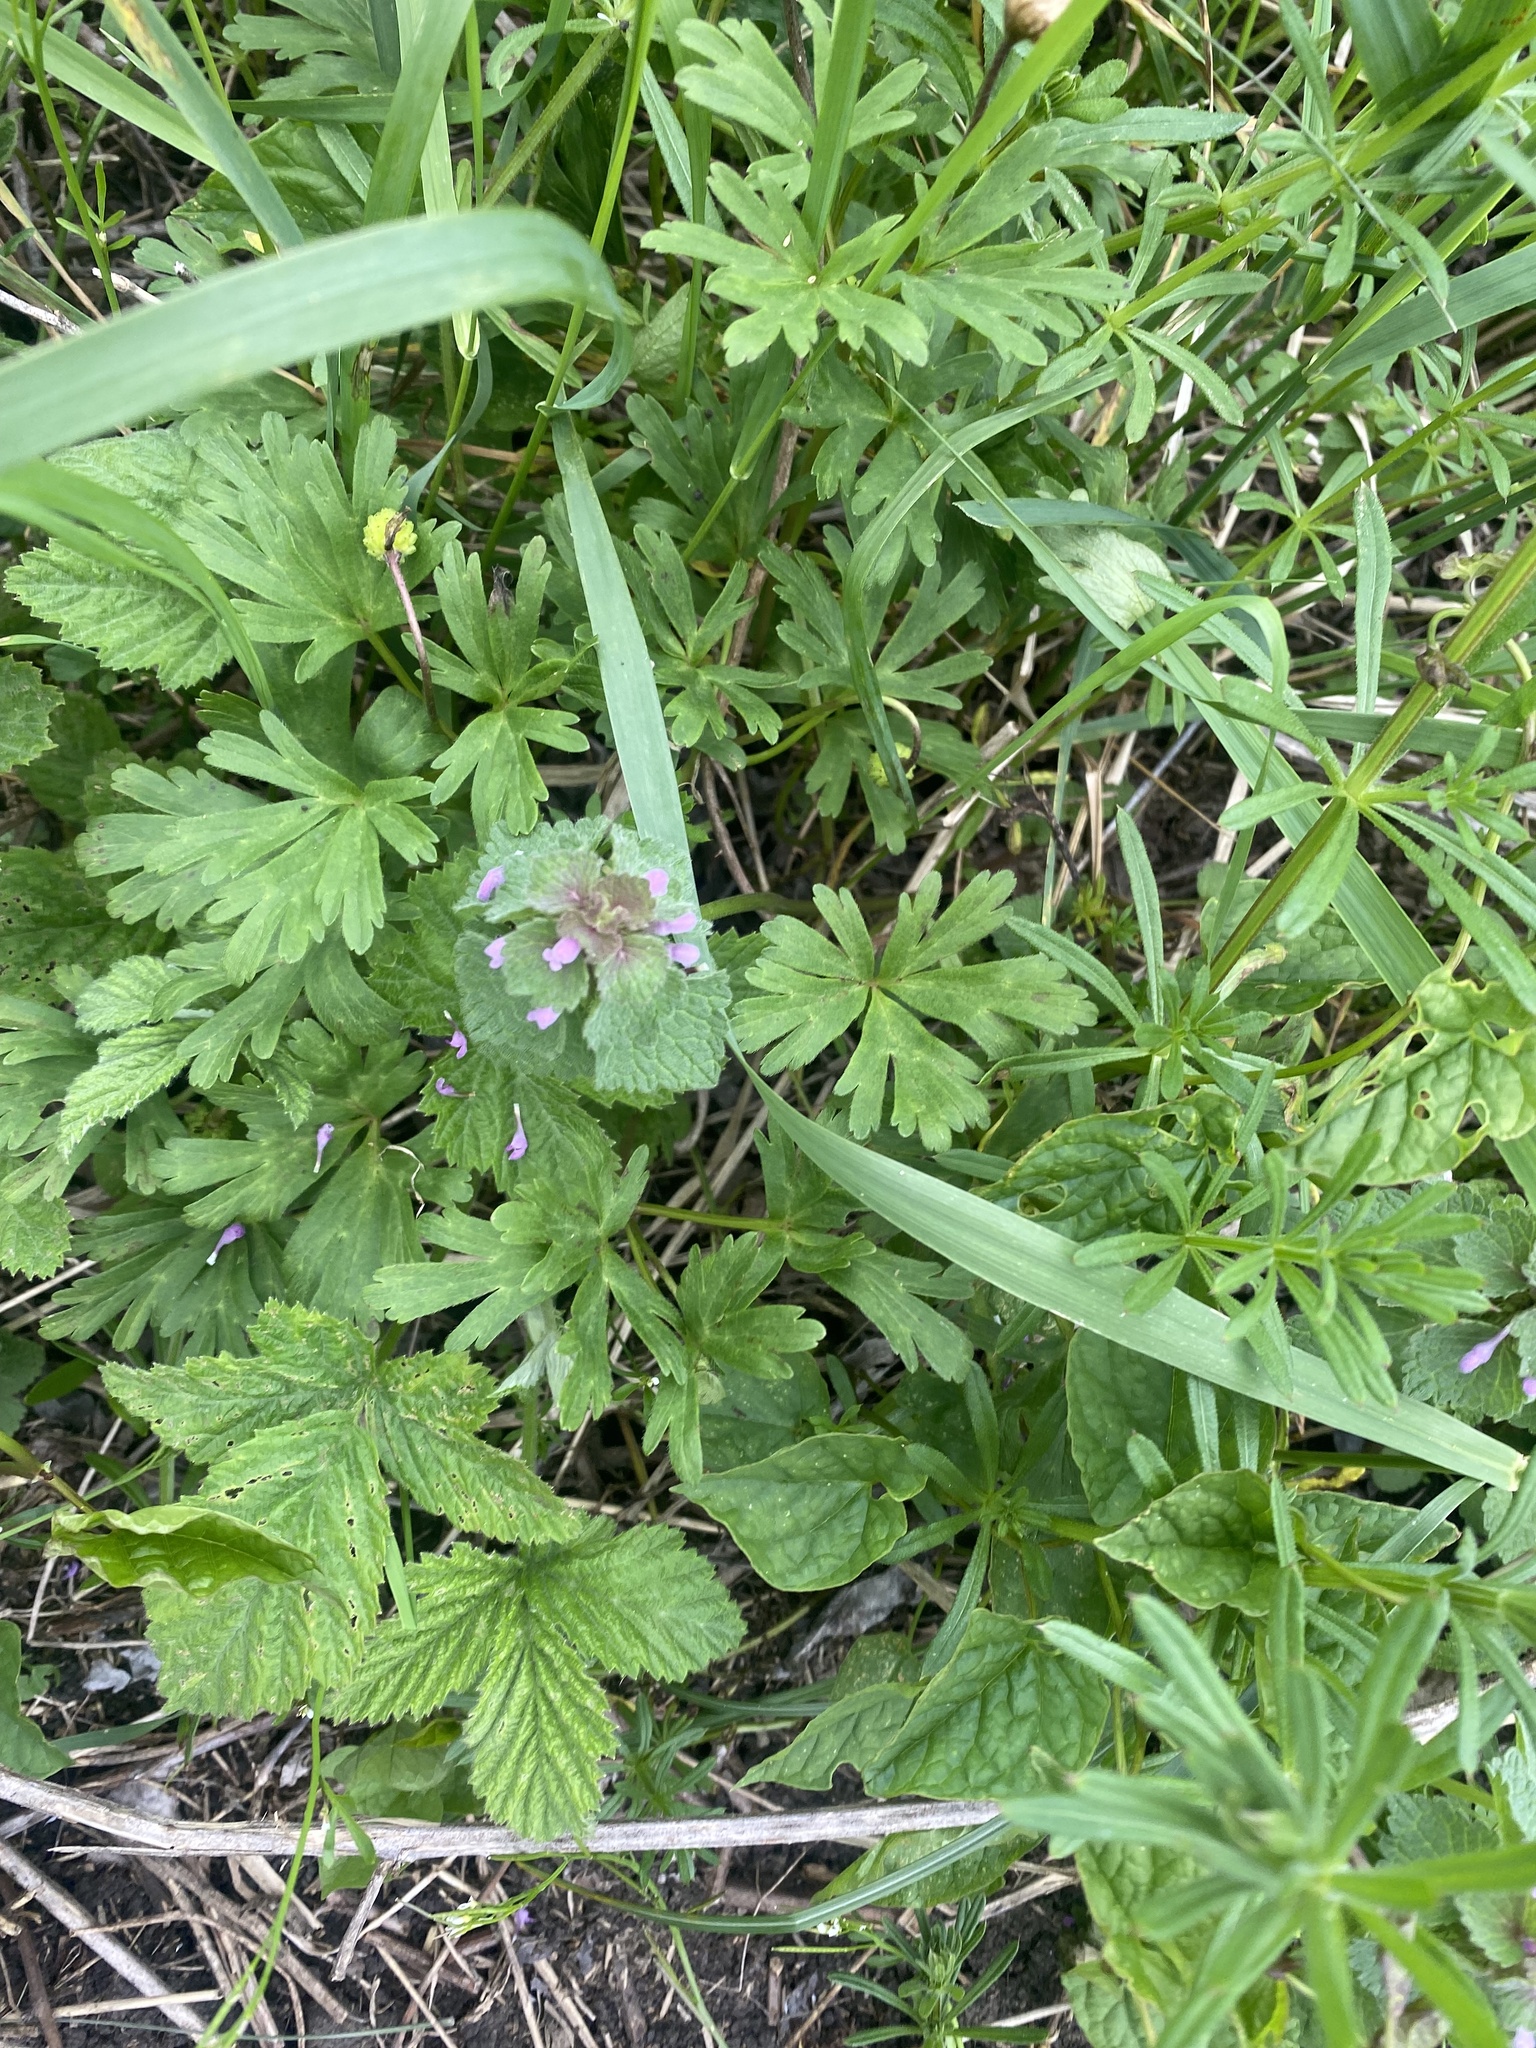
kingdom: Plantae
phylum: Tracheophyta
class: Magnoliopsida
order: Lamiales
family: Lamiaceae
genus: Lamium
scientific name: Lamium purpureum
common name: Red dead-nettle
